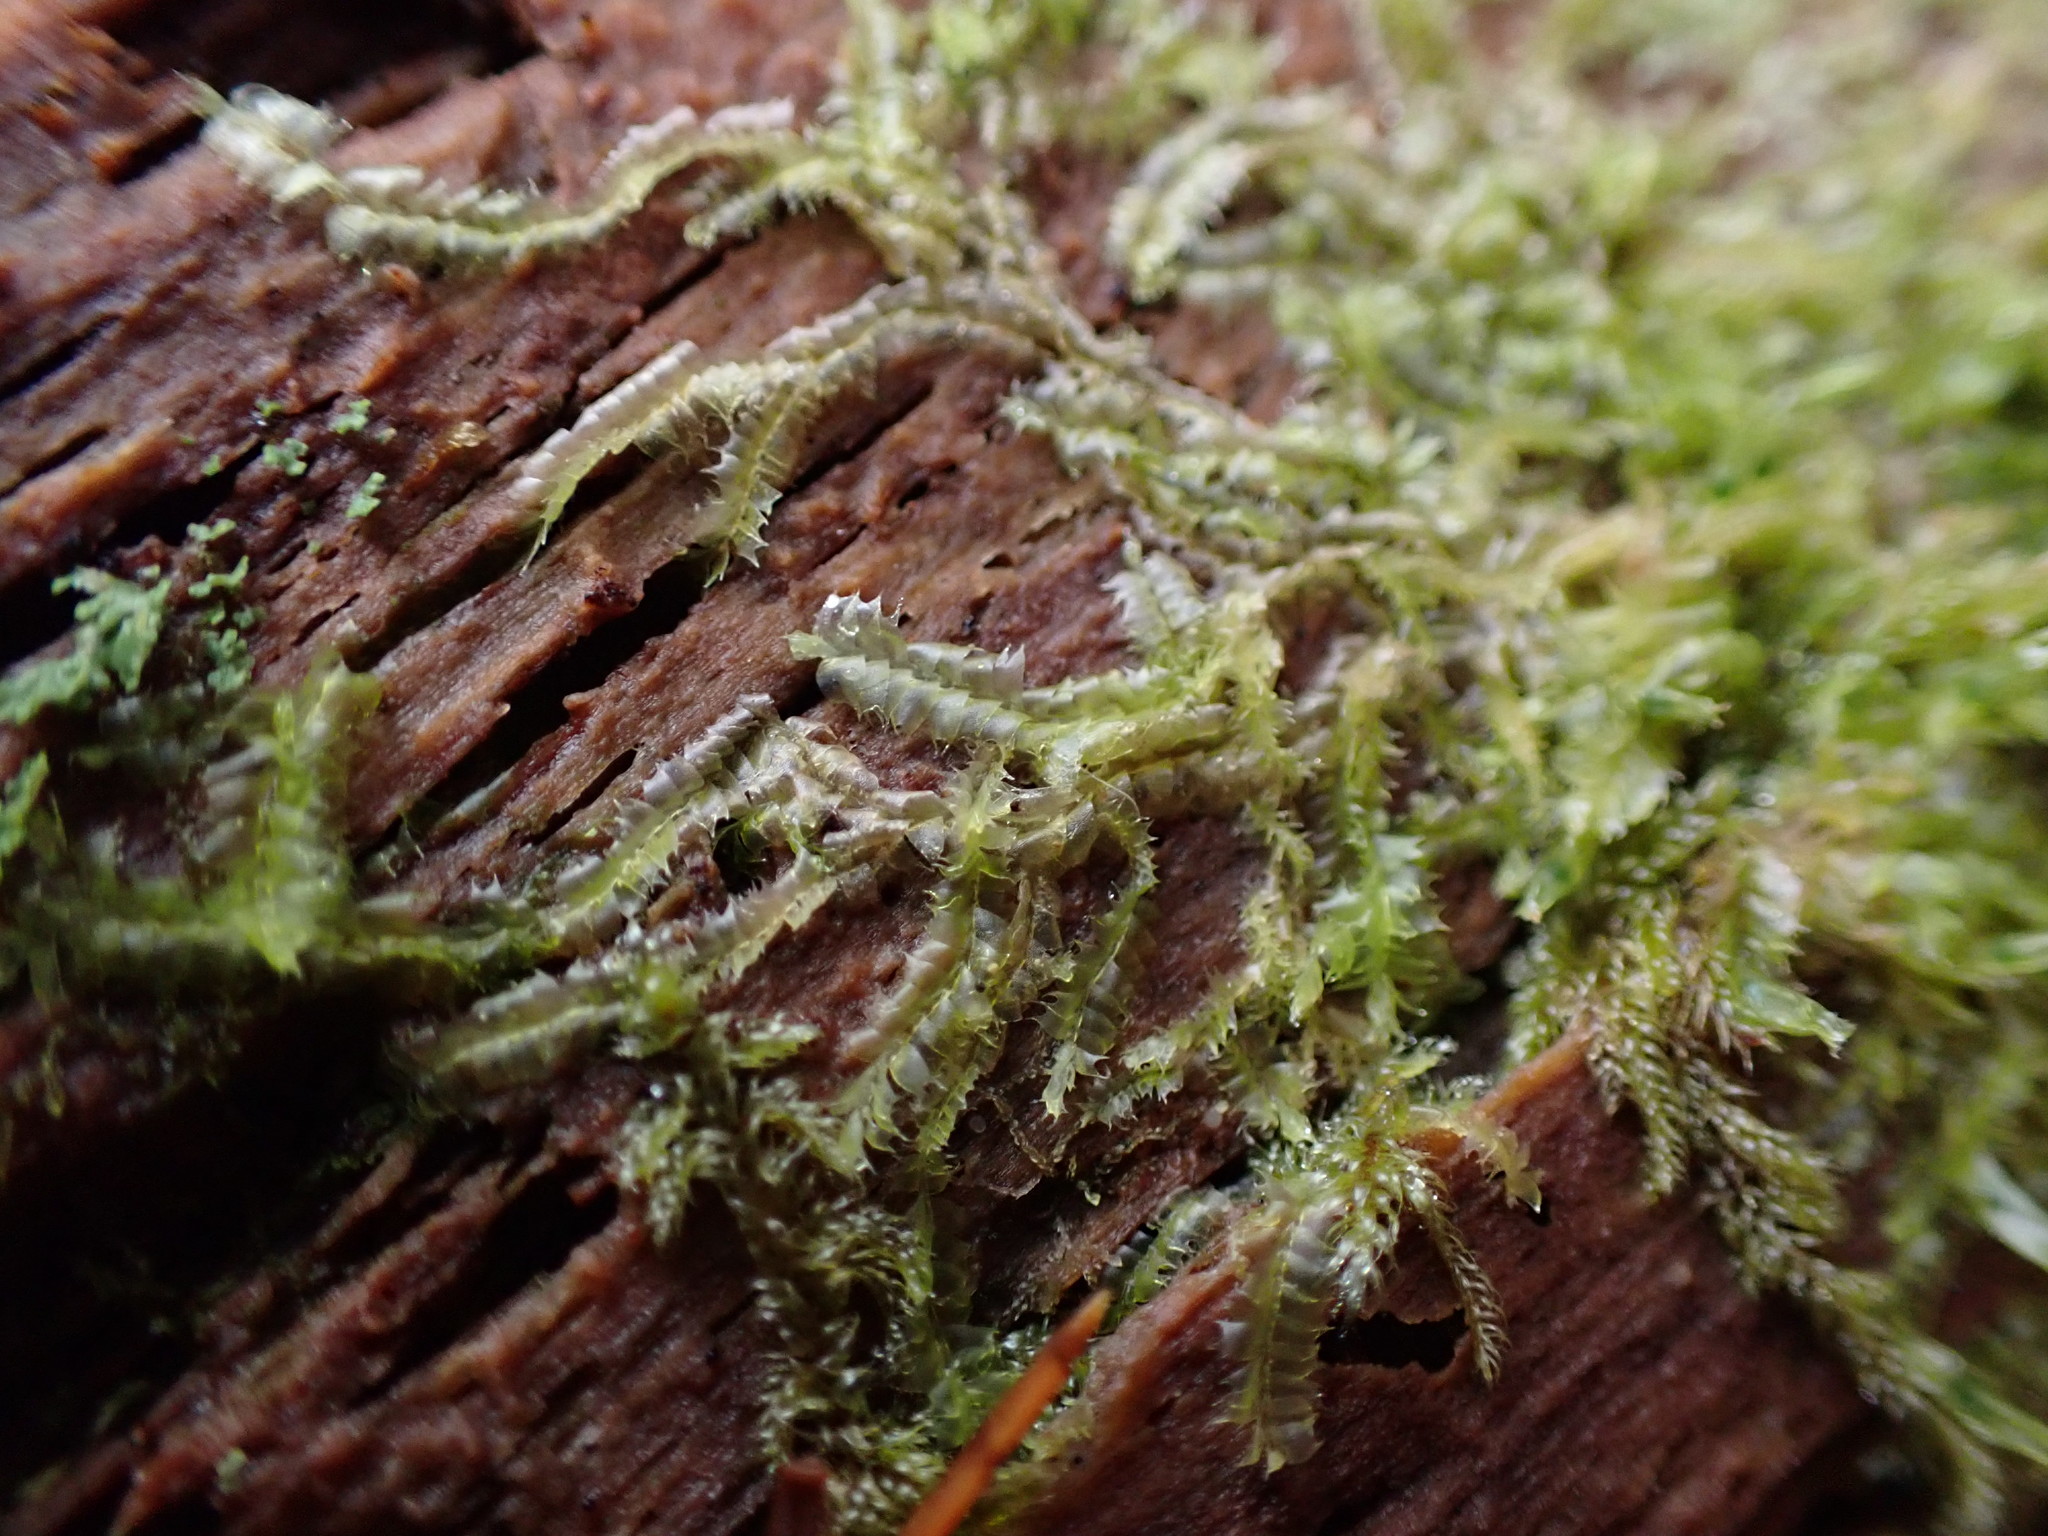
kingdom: Plantae
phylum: Marchantiophyta
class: Jungermanniopsida
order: Jungermanniales
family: Lophocoleaceae
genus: Lophocolea
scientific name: Lophocolea bidentata
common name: Bifid crestwort
